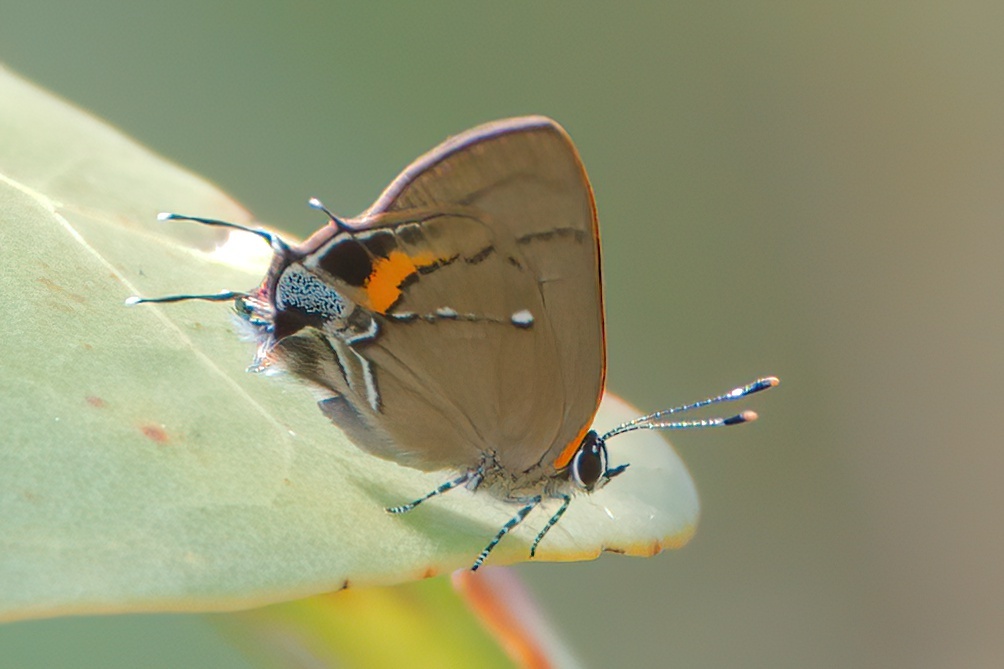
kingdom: Animalia
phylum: Arthropoda
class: Insecta
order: Lepidoptera
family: Lycaenidae
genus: Thecla
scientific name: Thecla angelia
